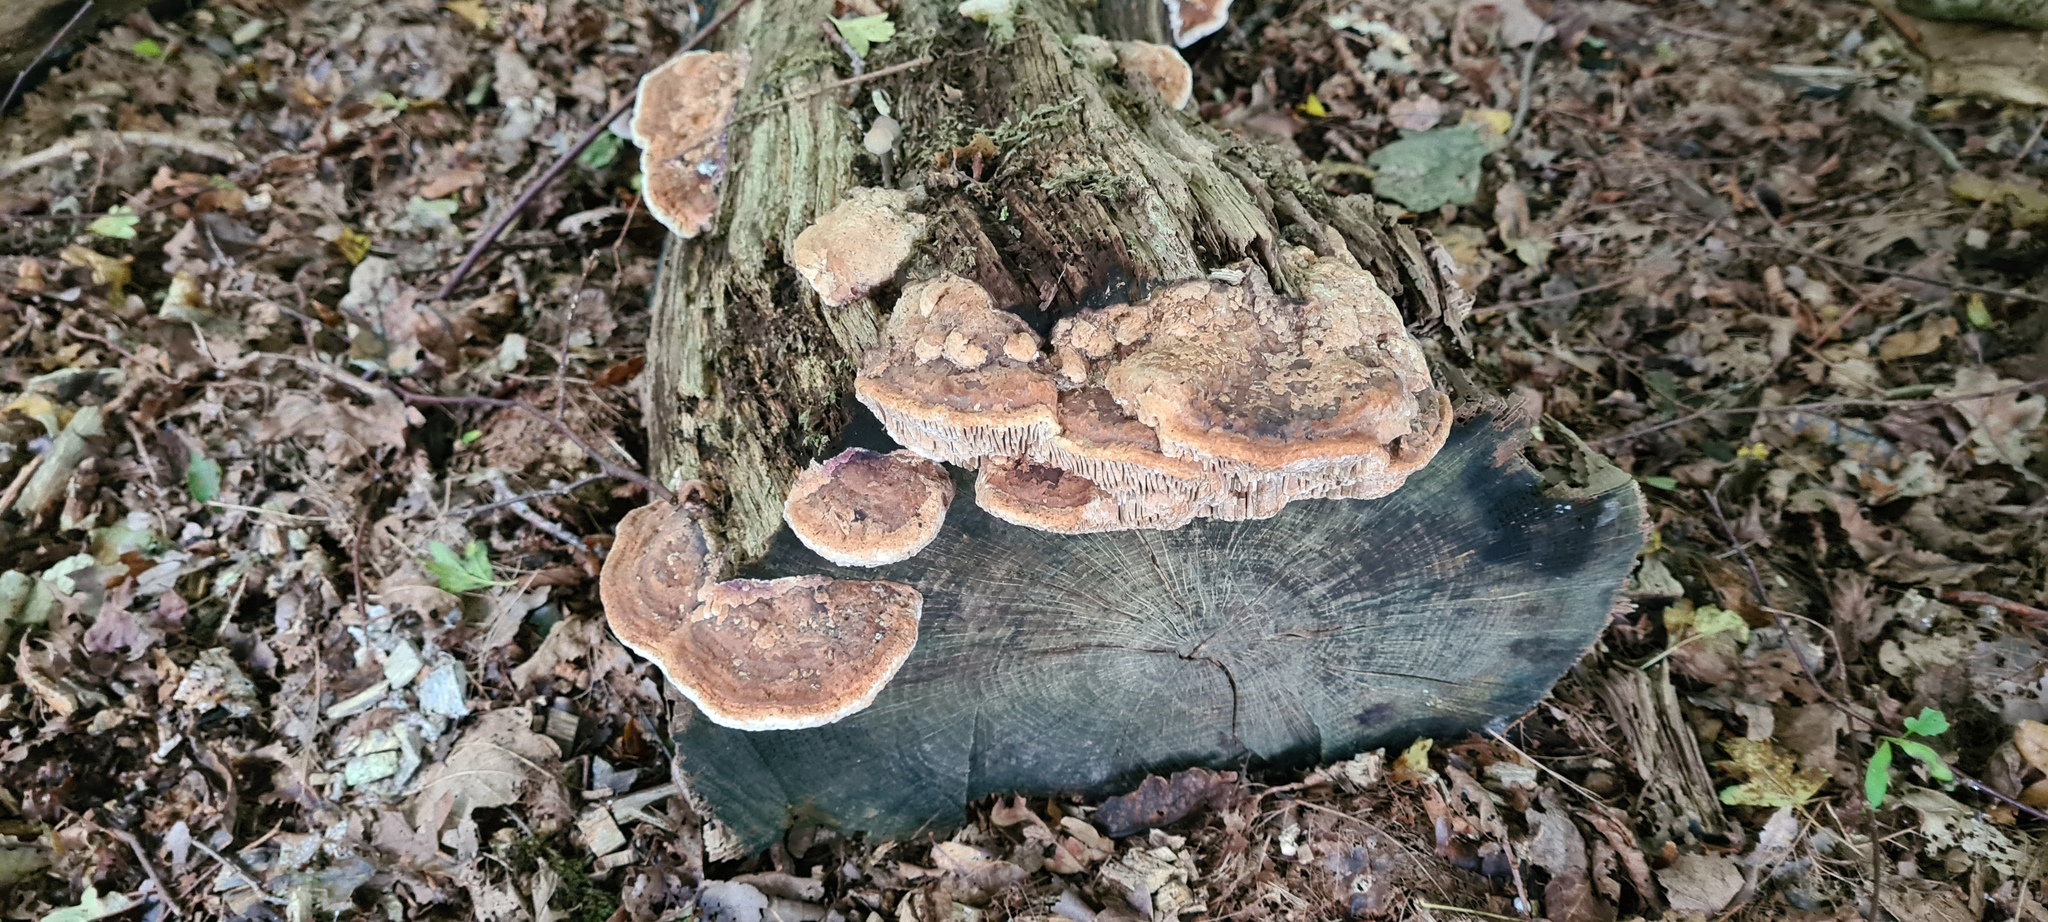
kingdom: Fungi
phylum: Basidiomycota
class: Agaricomycetes
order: Polyporales
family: Fomitopsidaceae
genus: Fomitopsis
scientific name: Fomitopsis
